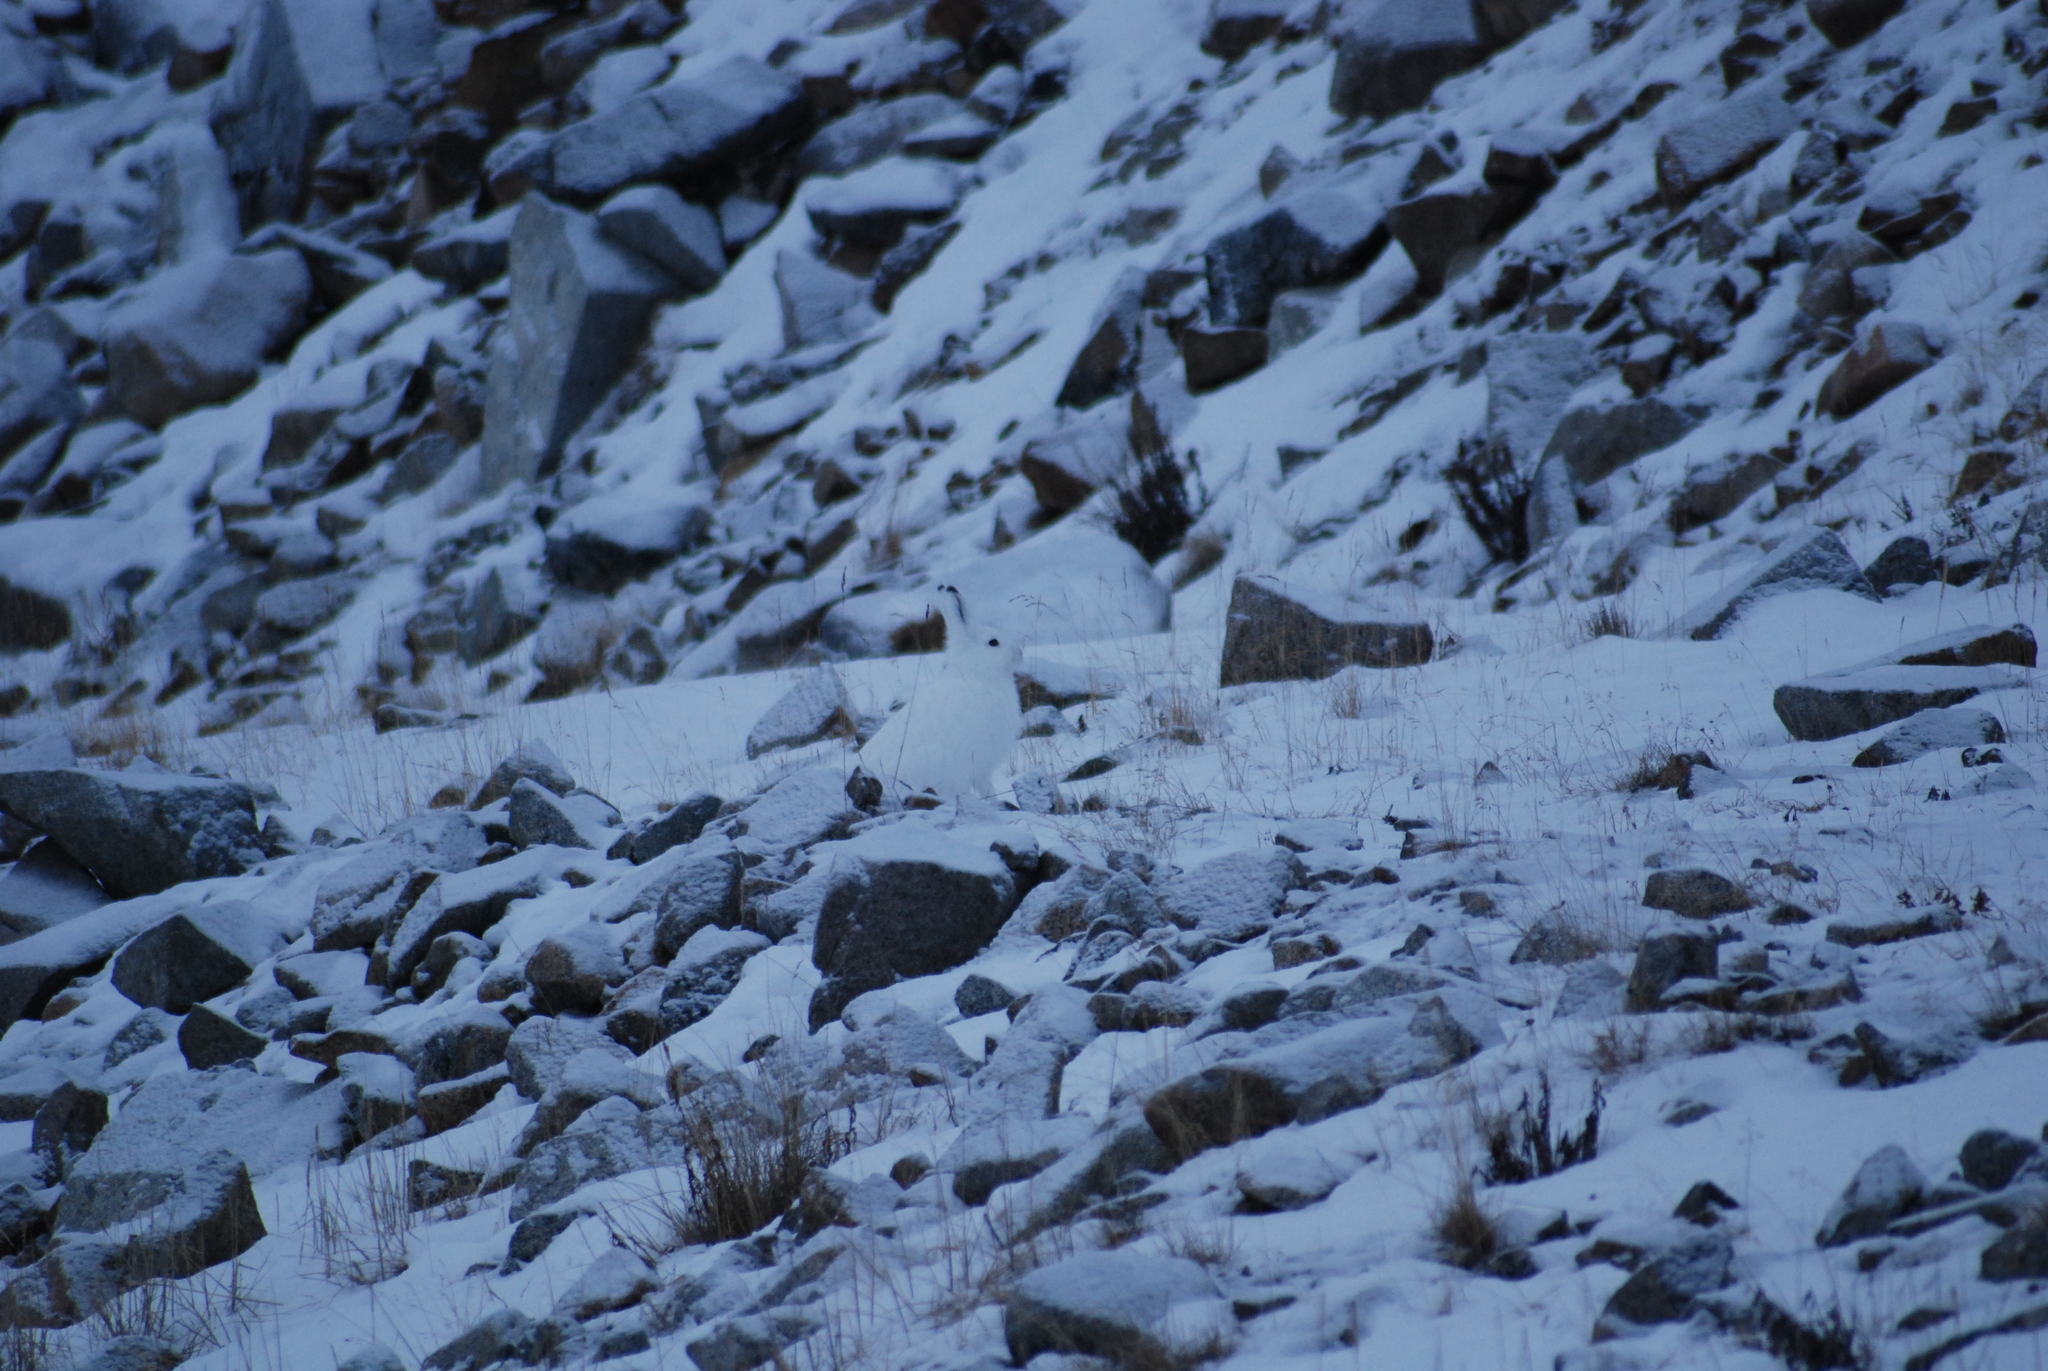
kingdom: Animalia
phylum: Chordata
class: Mammalia
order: Lagomorpha
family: Leporidae
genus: Lepus
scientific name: Lepus timidus
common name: Mountain hare
